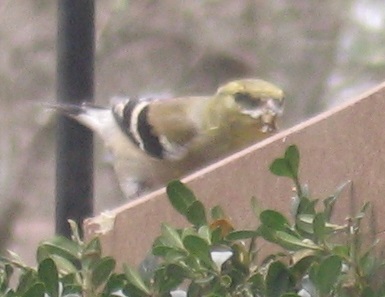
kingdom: Animalia
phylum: Chordata
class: Aves
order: Passeriformes
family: Fringillidae
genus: Spinus
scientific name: Spinus tristis
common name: American goldfinch
